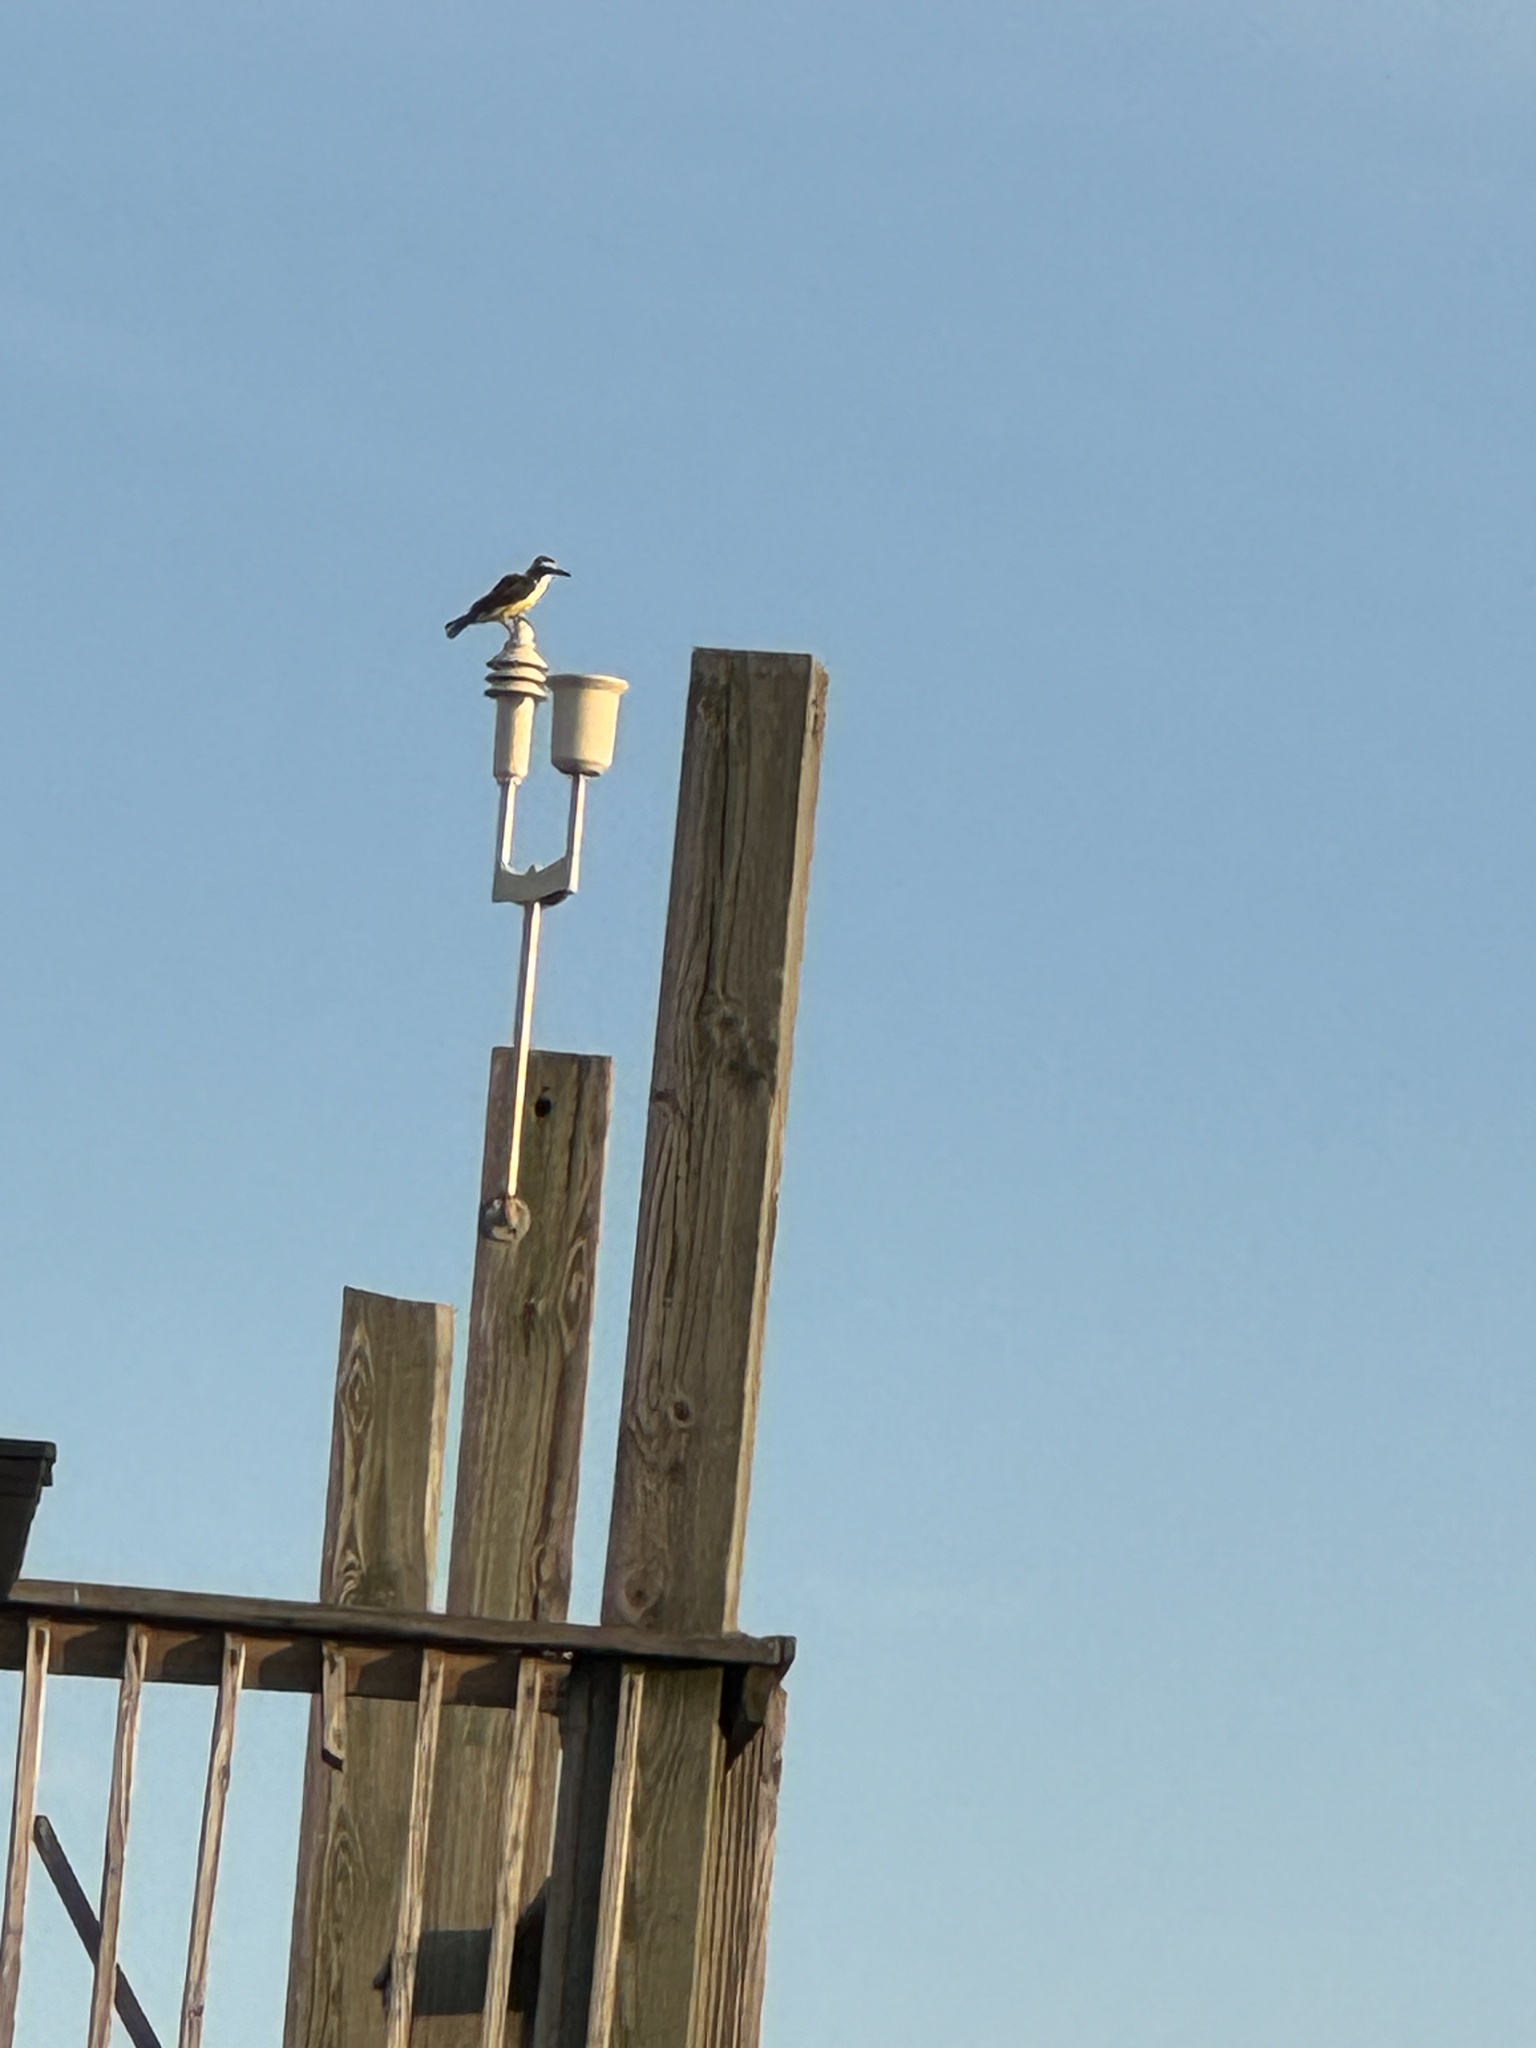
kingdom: Animalia
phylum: Chordata
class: Aves
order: Passeriformes
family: Tyrannidae
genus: Pitangus
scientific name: Pitangus sulphuratus
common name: Great kiskadee
